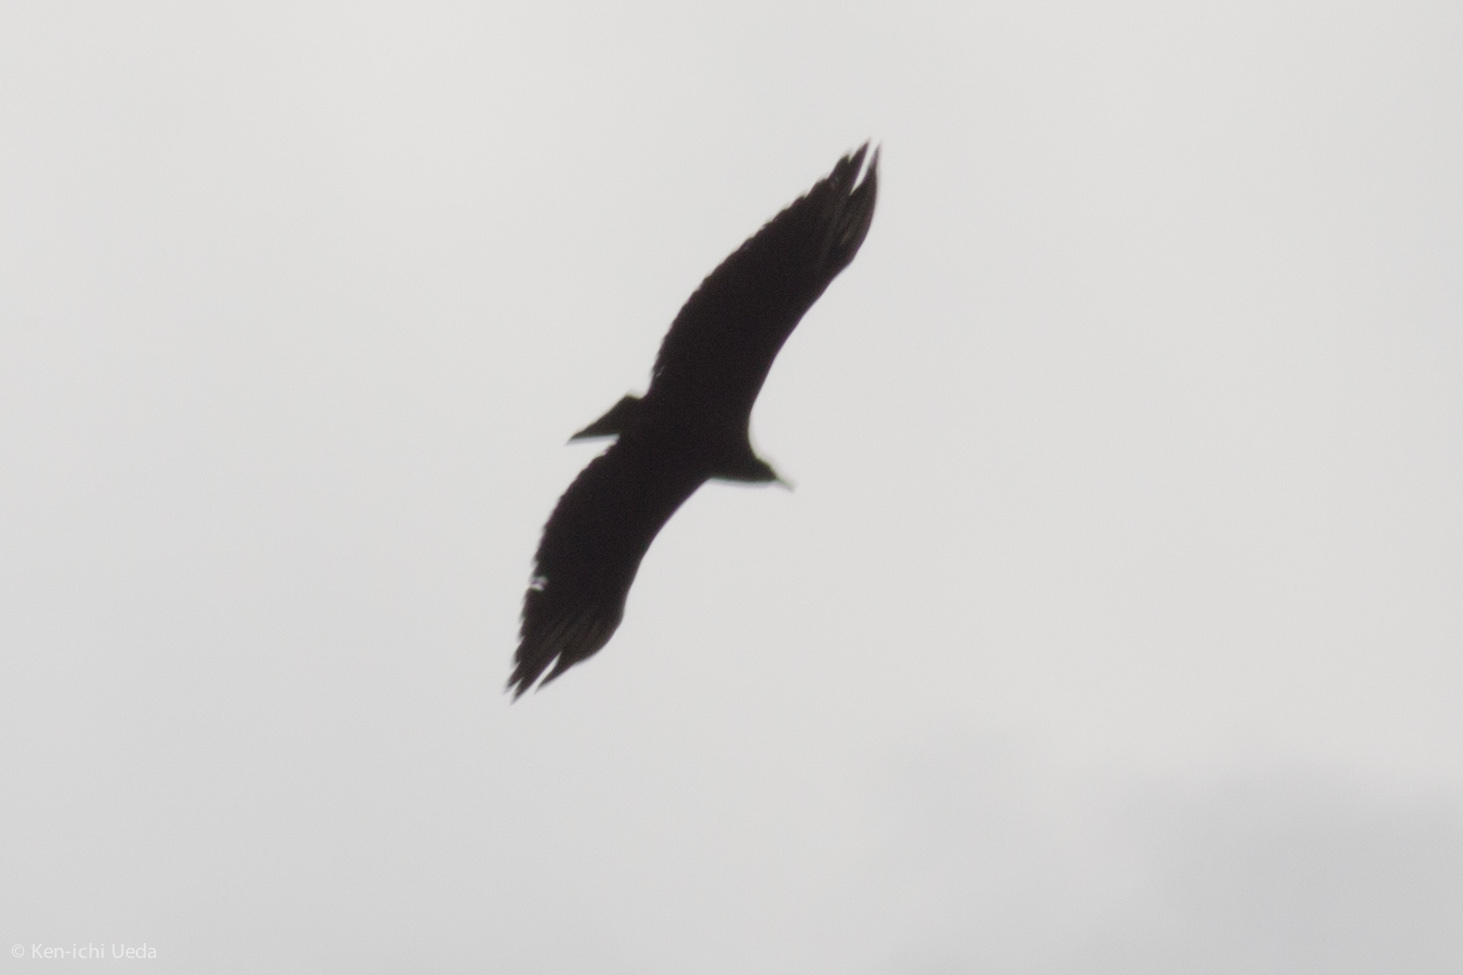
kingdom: Animalia
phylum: Chordata
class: Aves
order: Accipitriformes
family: Cathartidae
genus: Coragyps
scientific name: Coragyps atratus
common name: Black vulture
